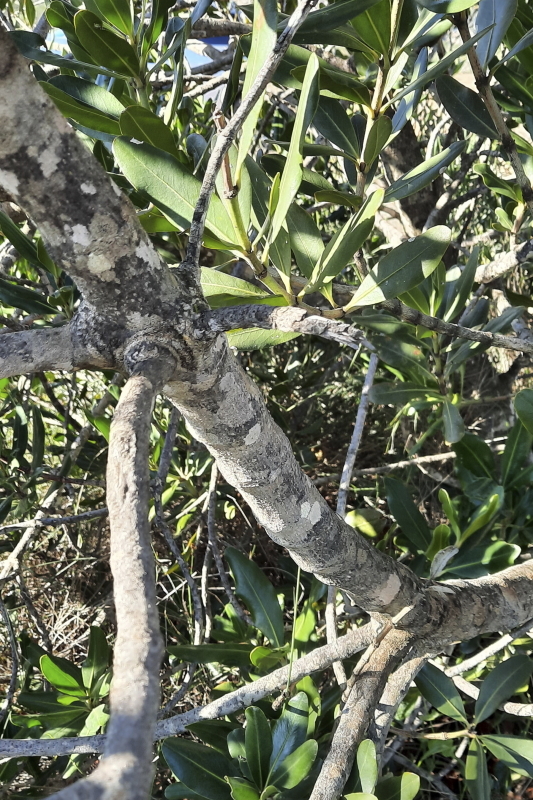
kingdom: Plantae
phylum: Tracheophyta
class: Magnoliopsida
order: Malpighiales
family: Picrodendraceae
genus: Hyaenanche
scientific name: Hyaenanche globosa
